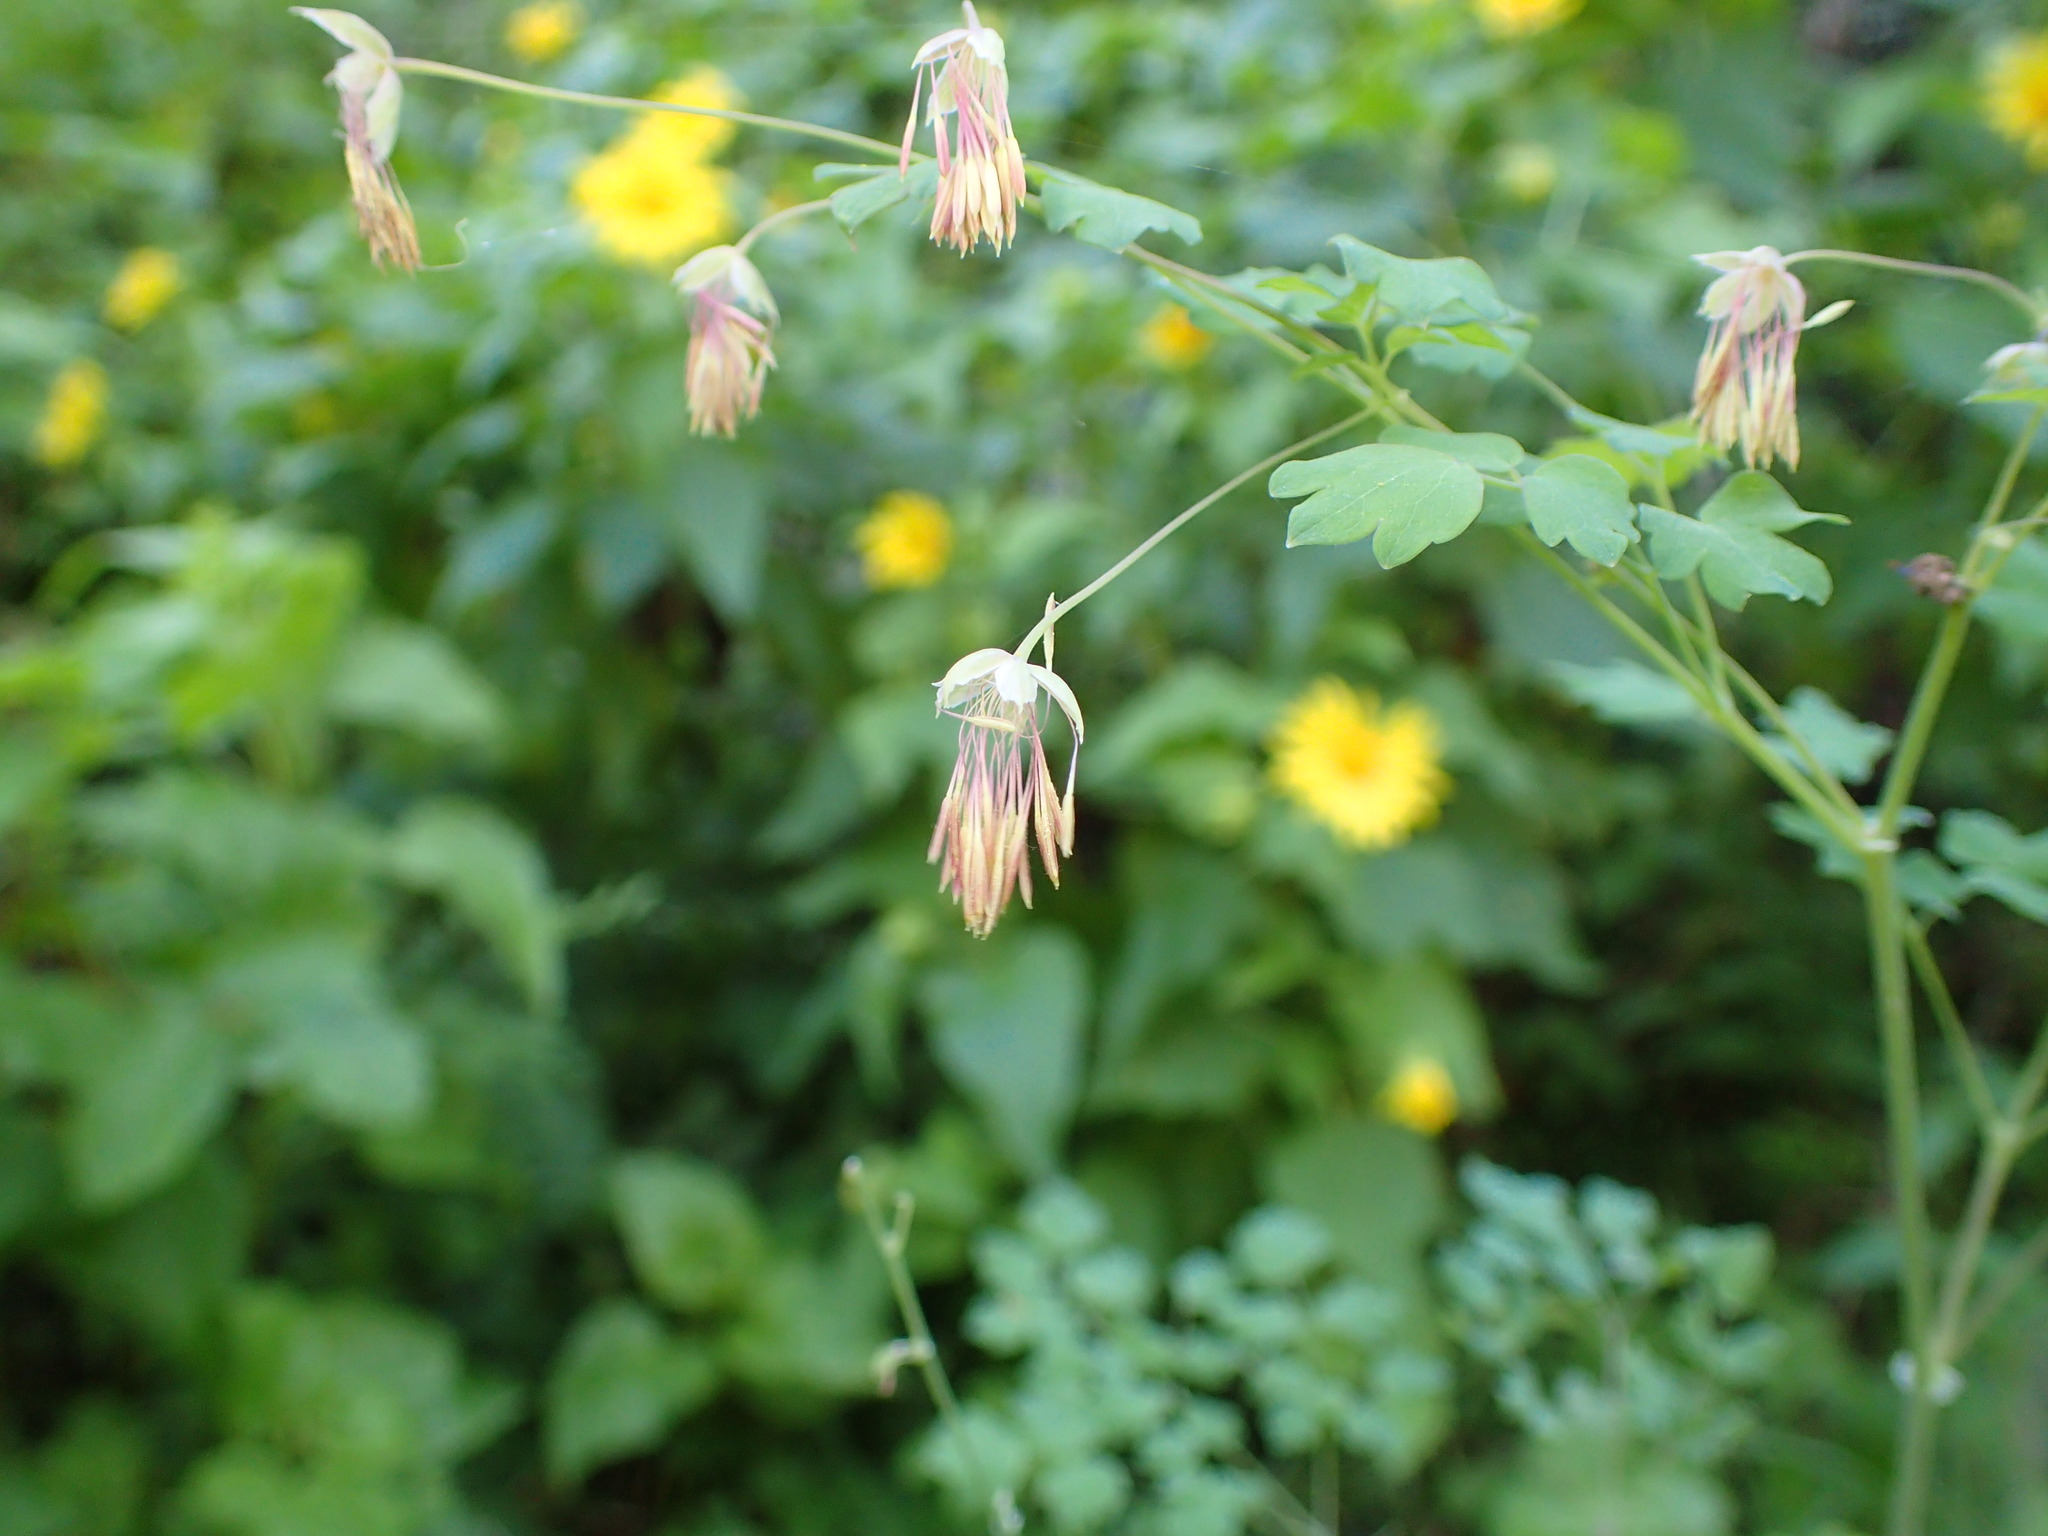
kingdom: Plantae
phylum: Tracheophyta
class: Magnoliopsida
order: Ranunculales
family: Ranunculaceae
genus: Thalictrum
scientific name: Thalictrum fendleri
